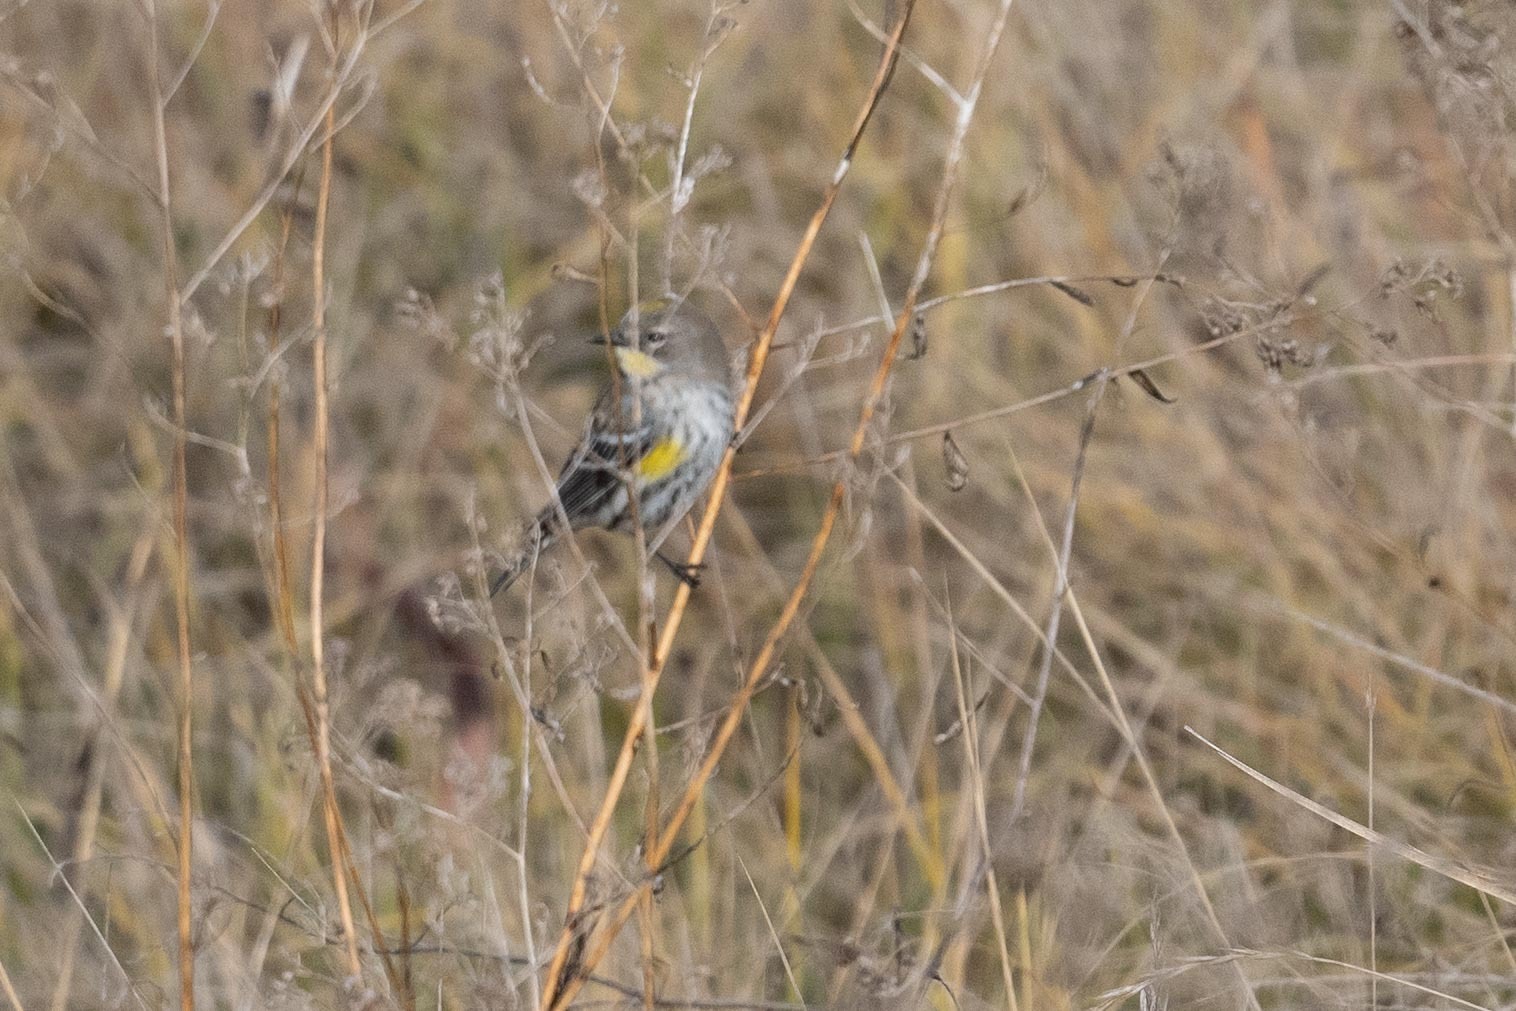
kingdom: Animalia
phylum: Chordata
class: Aves
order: Passeriformes
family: Parulidae
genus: Setophaga
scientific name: Setophaga coronata
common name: Myrtle warbler
